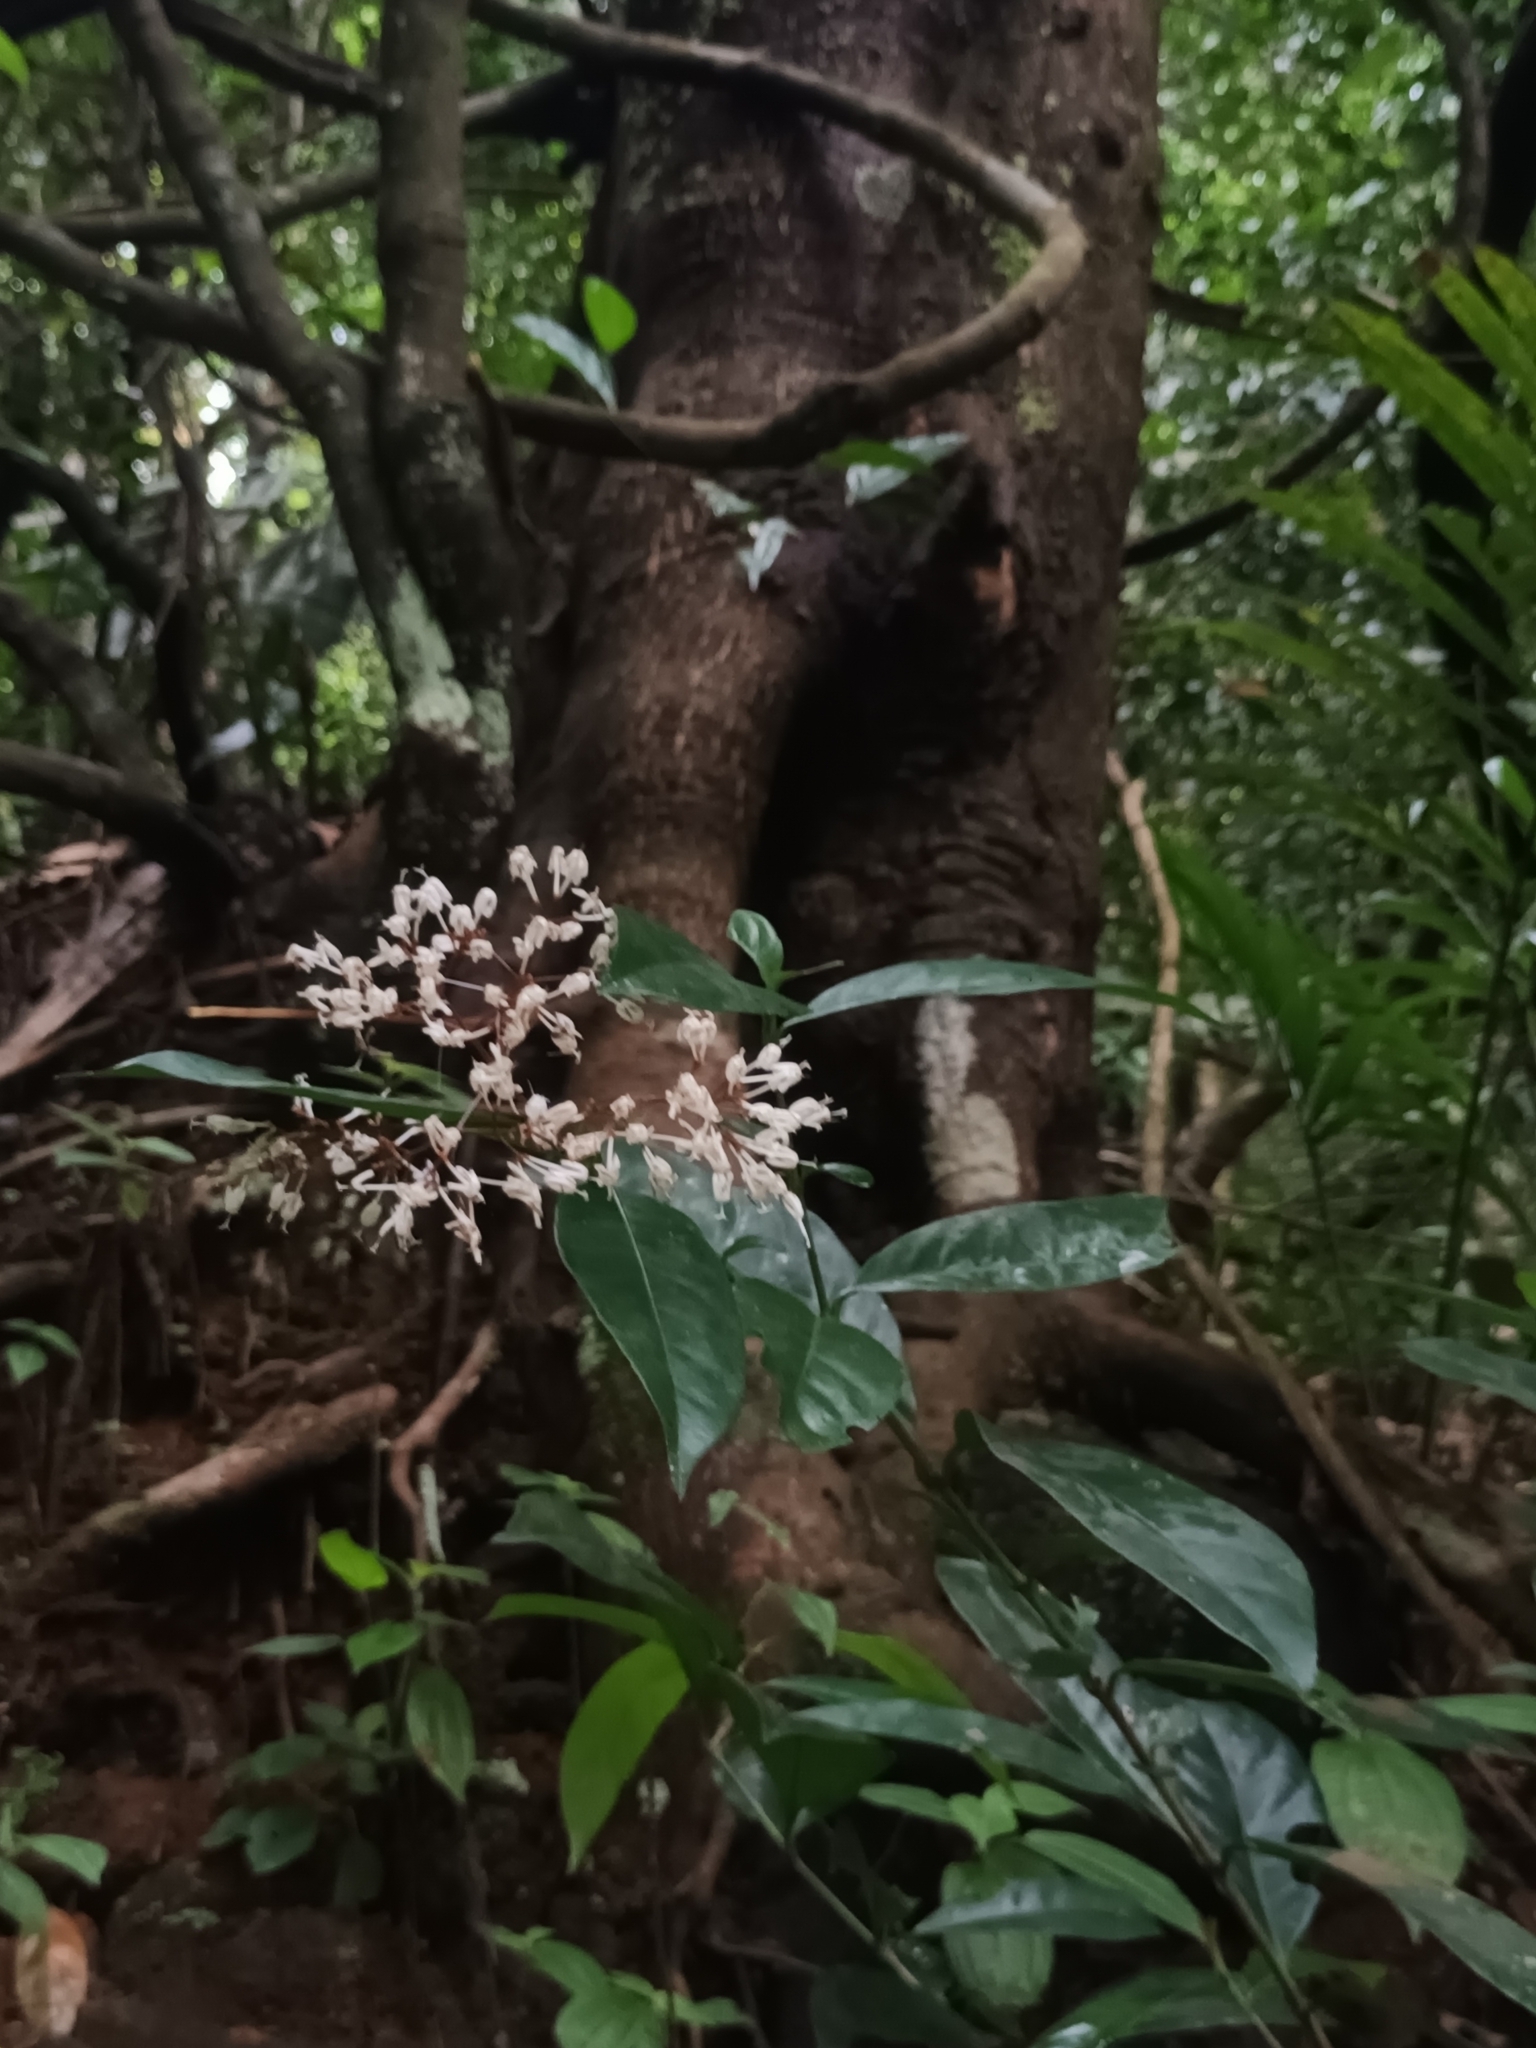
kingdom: Plantae
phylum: Tracheophyta
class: Magnoliopsida
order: Gentianales
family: Rubiaceae
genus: Ixora
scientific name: Ixora nigricans
